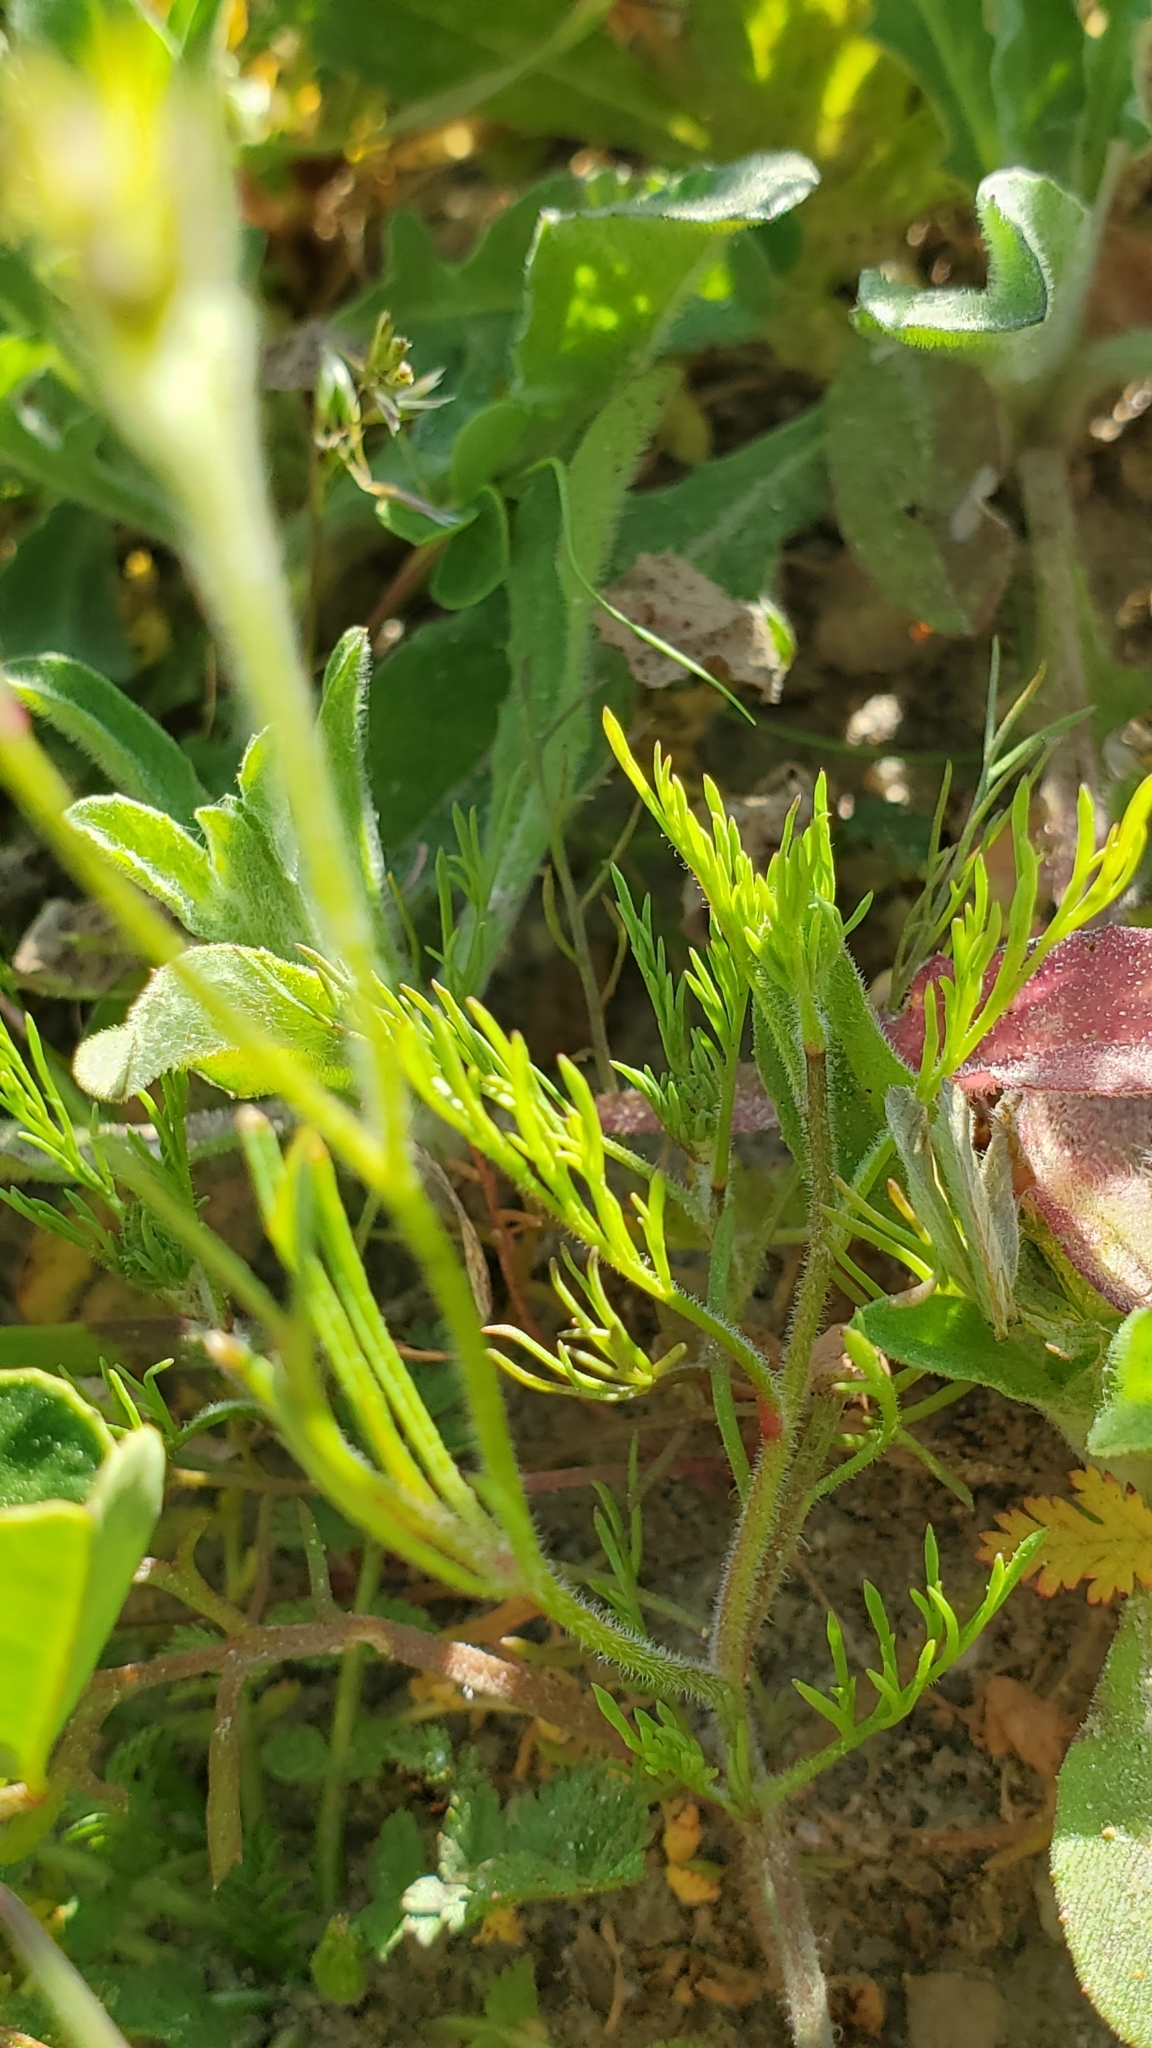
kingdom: Plantae
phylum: Tracheophyta
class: Magnoliopsida
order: Ericales
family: Polemoniaceae
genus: Gilia
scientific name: Gilia angelensis
